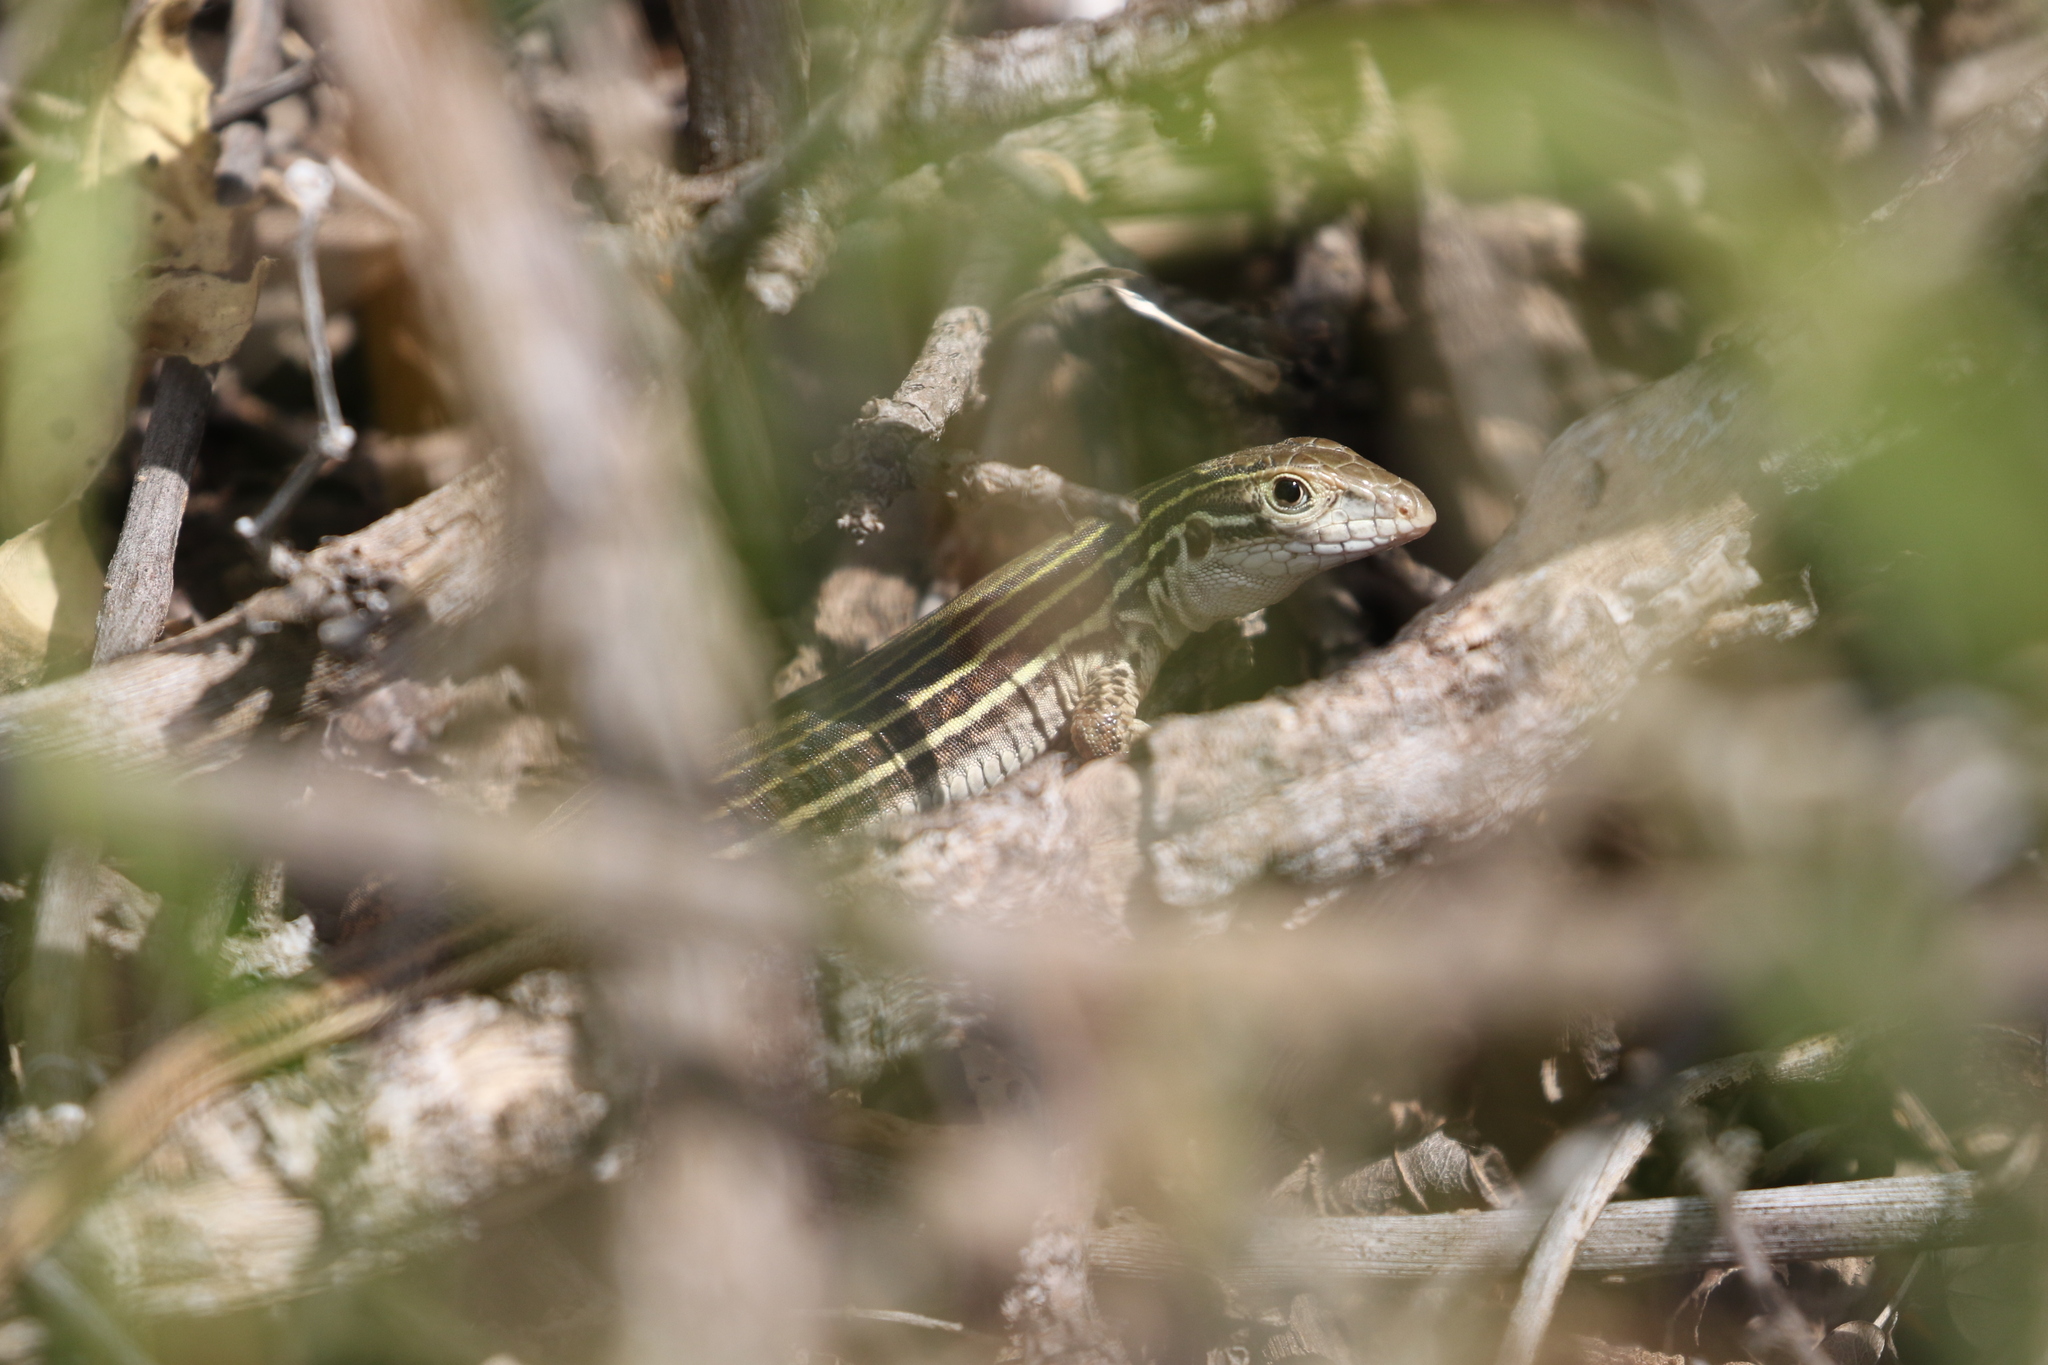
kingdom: Animalia
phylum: Chordata
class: Squamata
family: Teiidae
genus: Aspidoscelis
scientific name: Aspidoscelis gularis
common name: Eastern spotted whiptail
